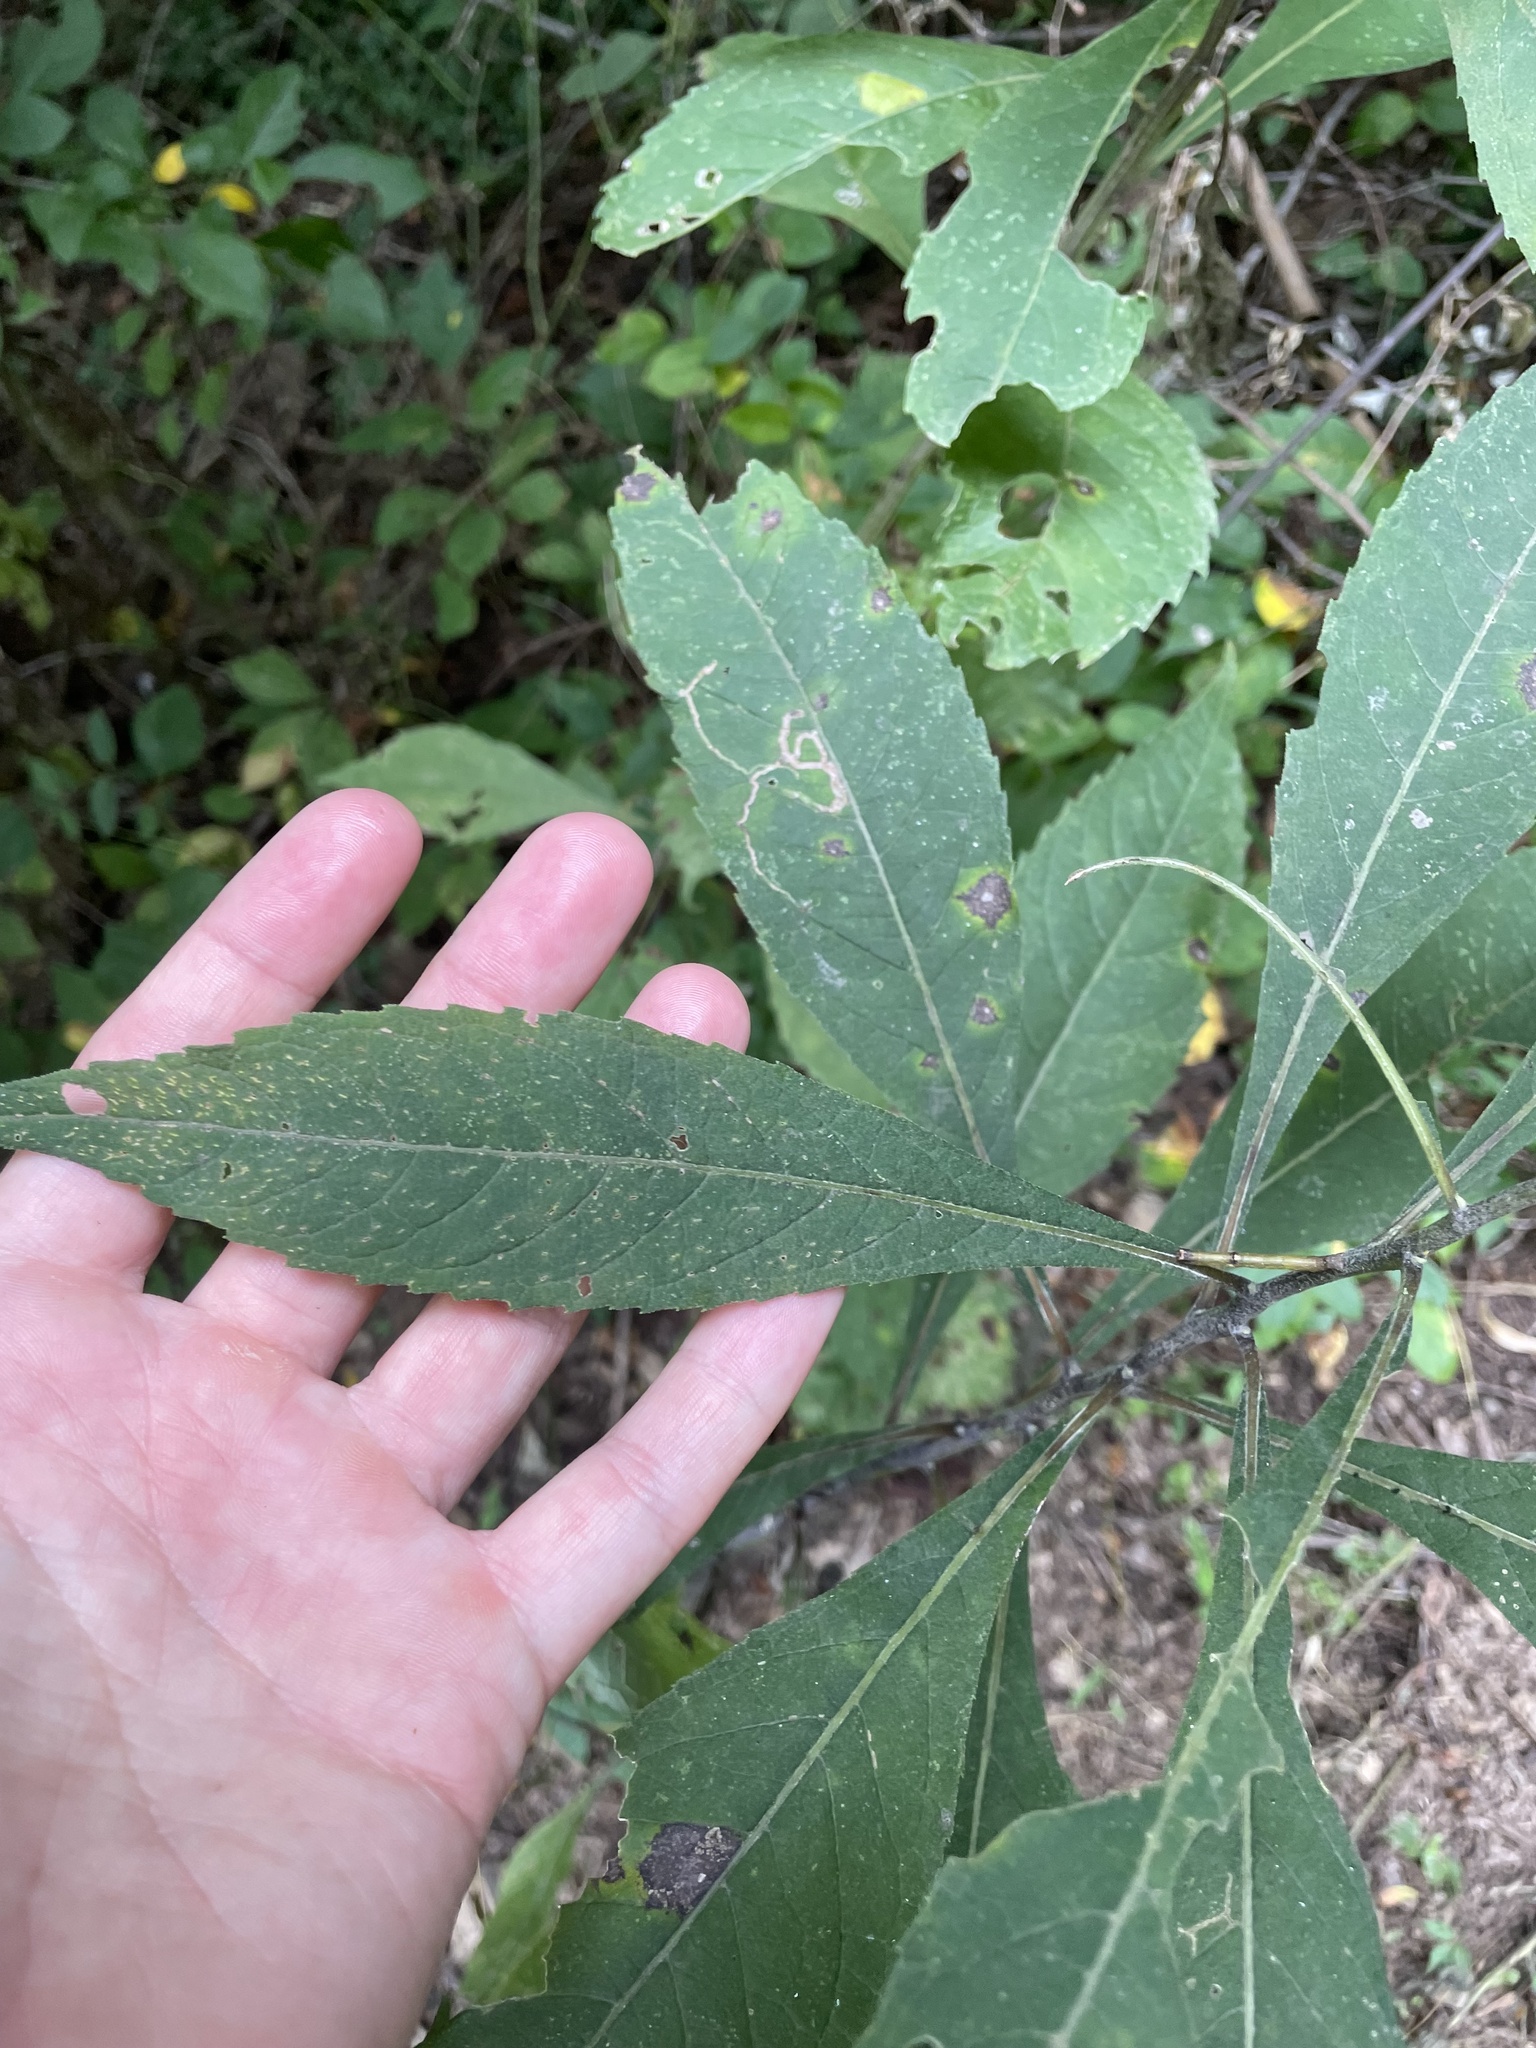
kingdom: Plantae
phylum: Tracheophyta
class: Magnoliopsida
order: Asterales
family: Asteraceae
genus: Verbesina
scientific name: Verbesina alternifolia
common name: Wingstem
